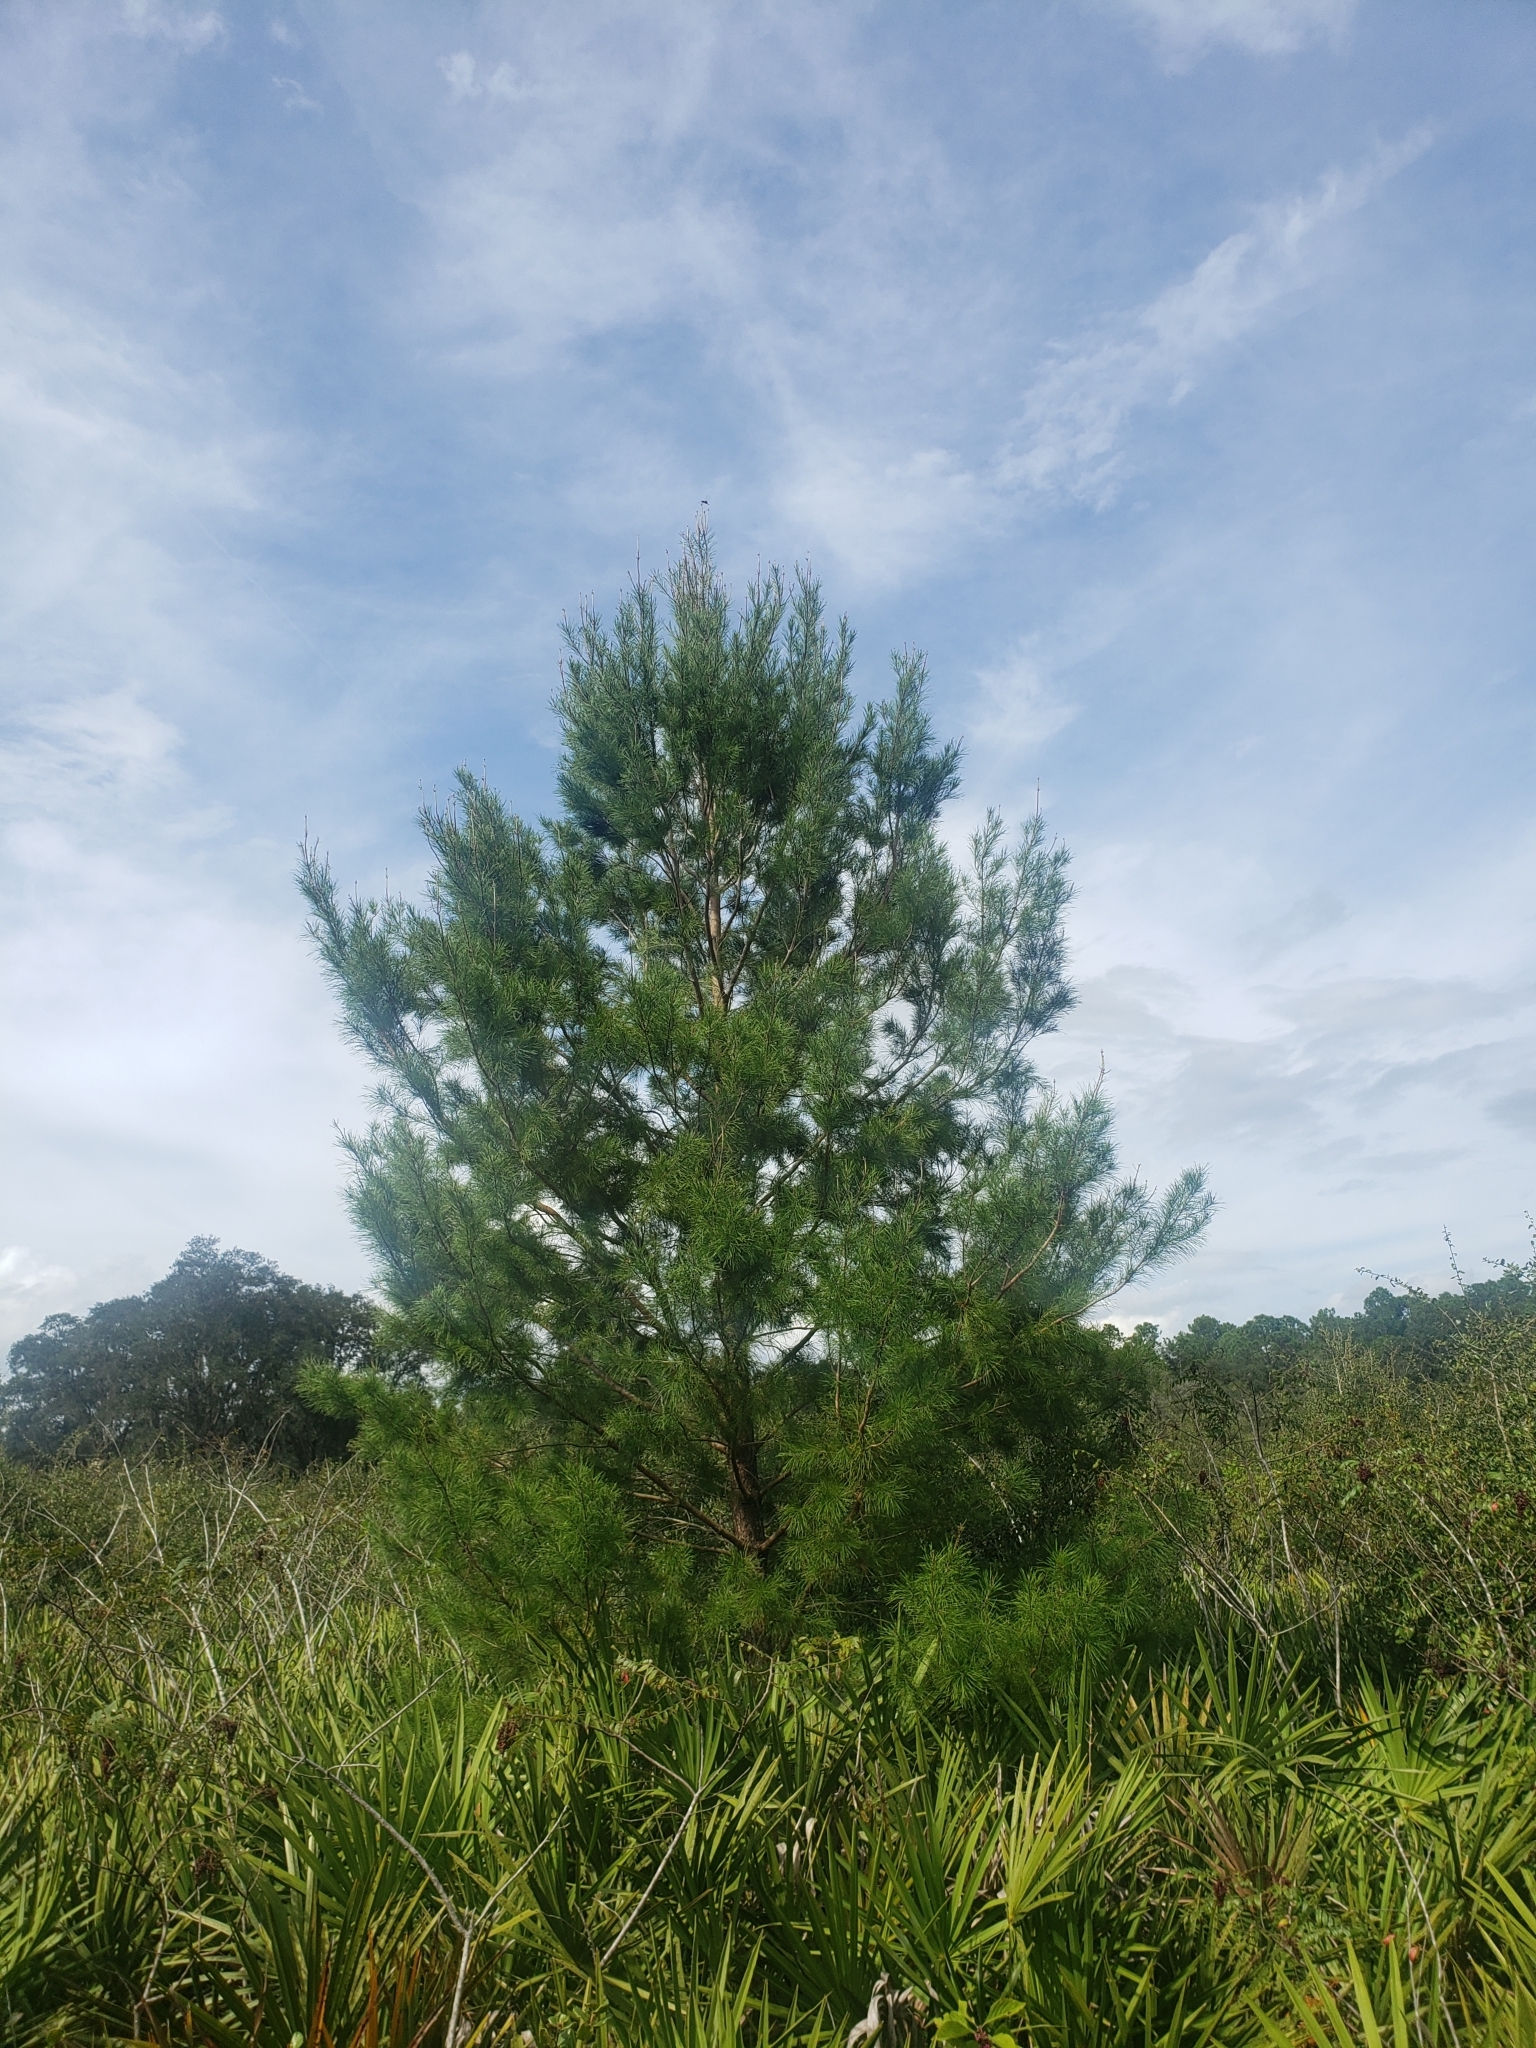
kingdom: Plantae
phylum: Tracheophyta
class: Pinopsida
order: Pinales
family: Pinaceae
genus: Pinus
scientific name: Pinus clausa
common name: Sand pine
